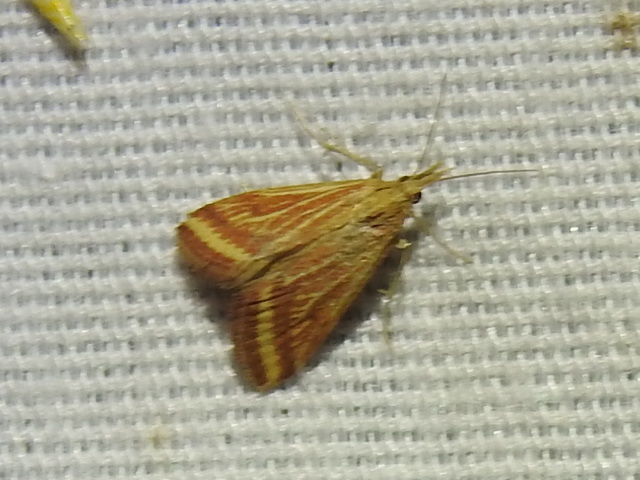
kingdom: Animalia
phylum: Arthropoda
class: Insecta
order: Lepidoptera
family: Crambidae
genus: Microtheoris
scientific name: Microtheoris ophionalis
